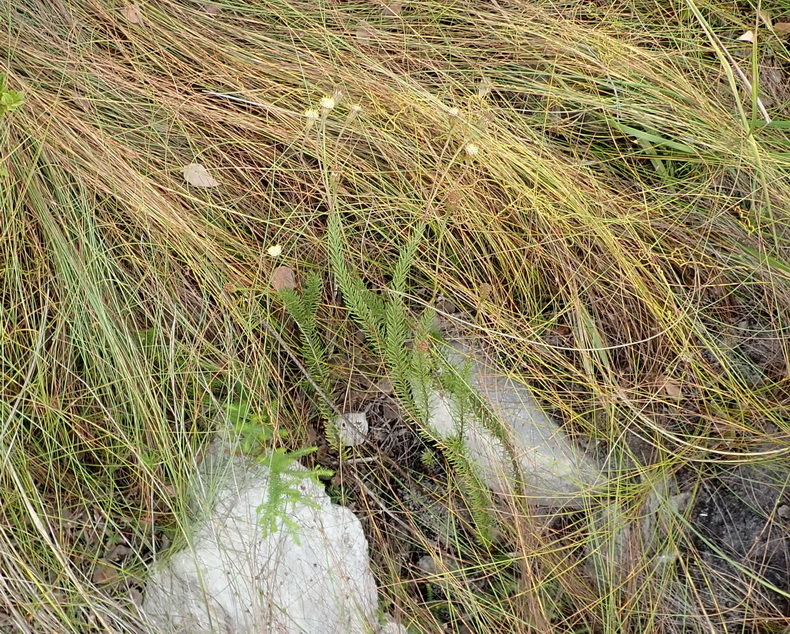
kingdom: Plantae
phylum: Tracheophyta
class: Magnoliopsida
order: Asterales
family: Asteraceae
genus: Senecio
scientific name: Senecio triqueter
